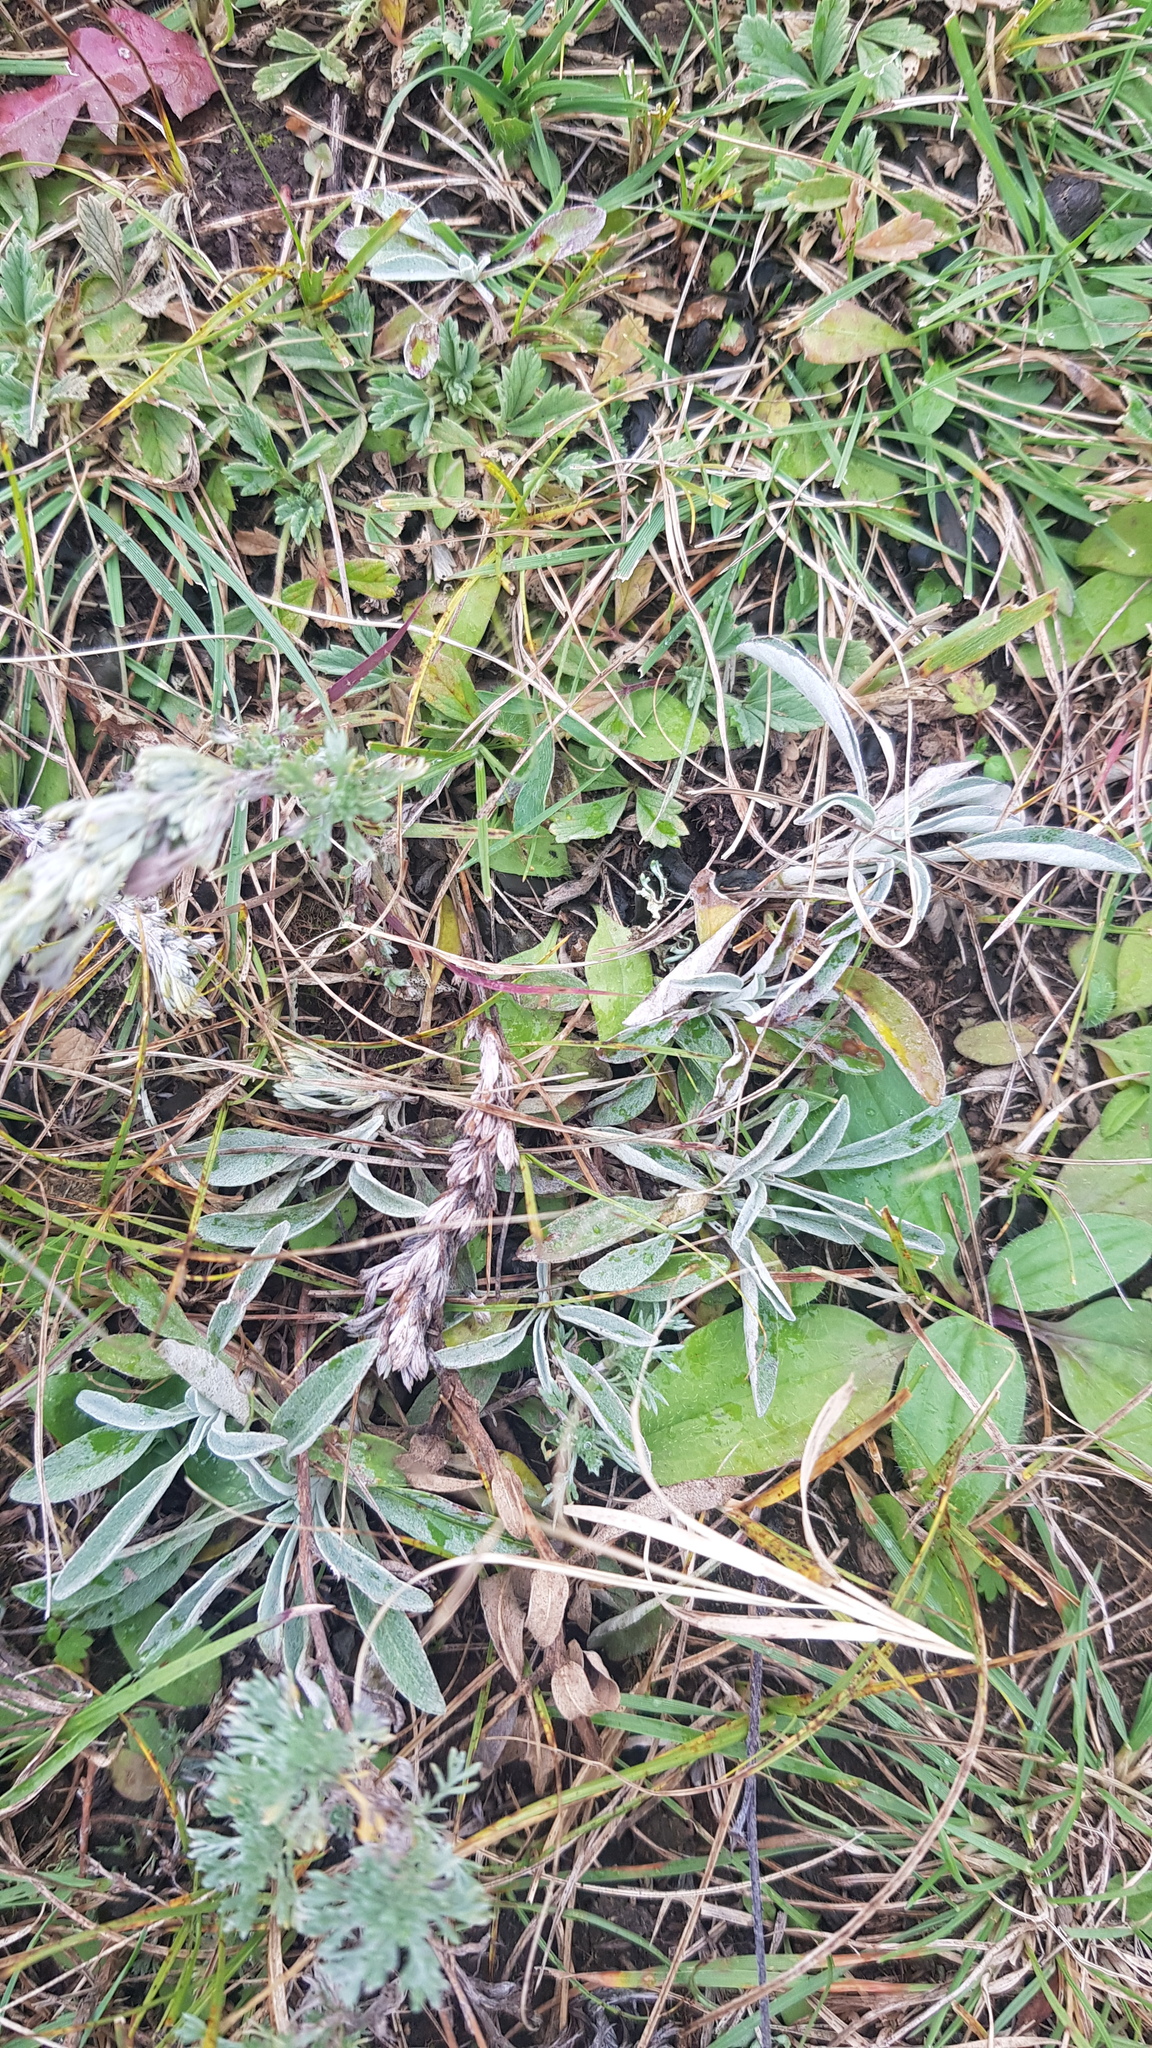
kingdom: Plantae
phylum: Tracheophyta
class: Magnoliopsida
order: Lamiales
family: Plantaginaceae
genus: Veronica
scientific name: Veronica incana
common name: Silver speedwell
